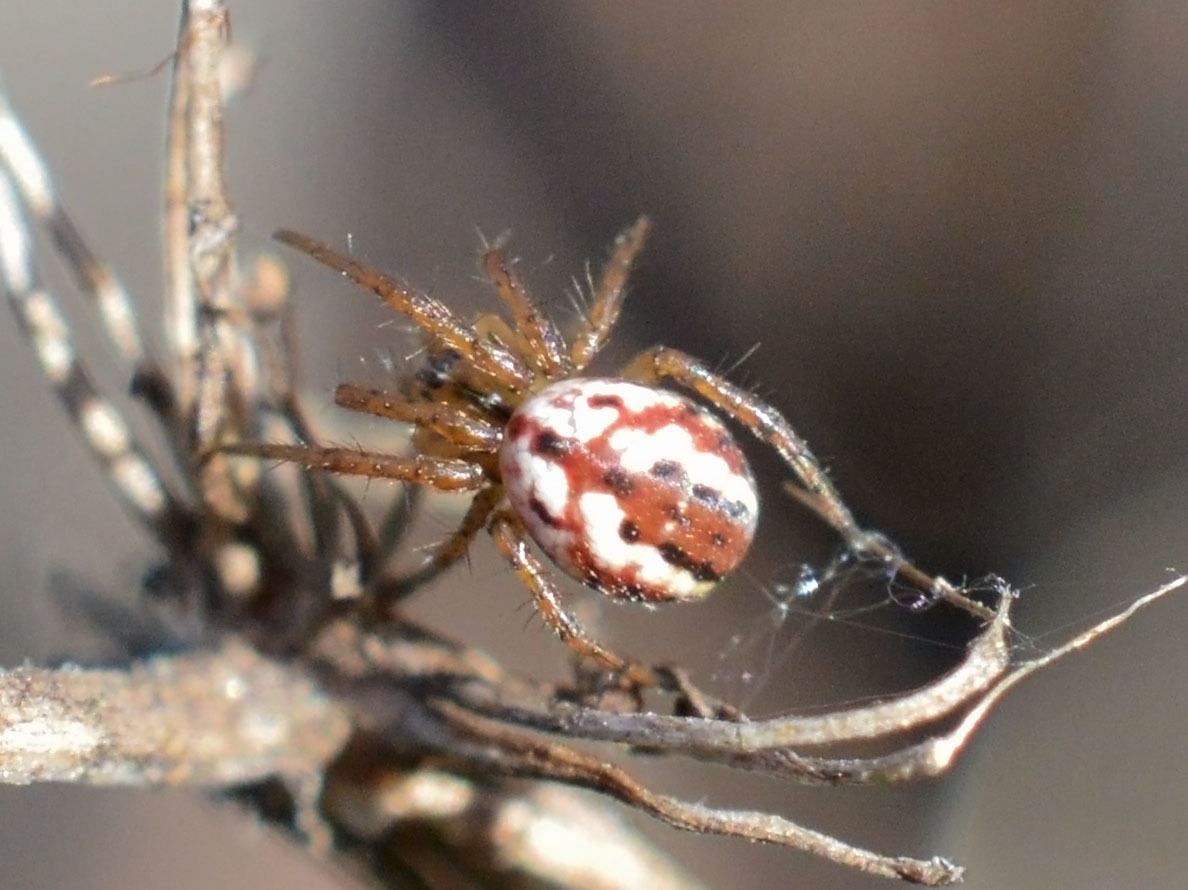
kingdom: Animalia
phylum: Arthropoda
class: Arachnida
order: Araneae
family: Araneidae
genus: Mangora
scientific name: Mangora acalypha
